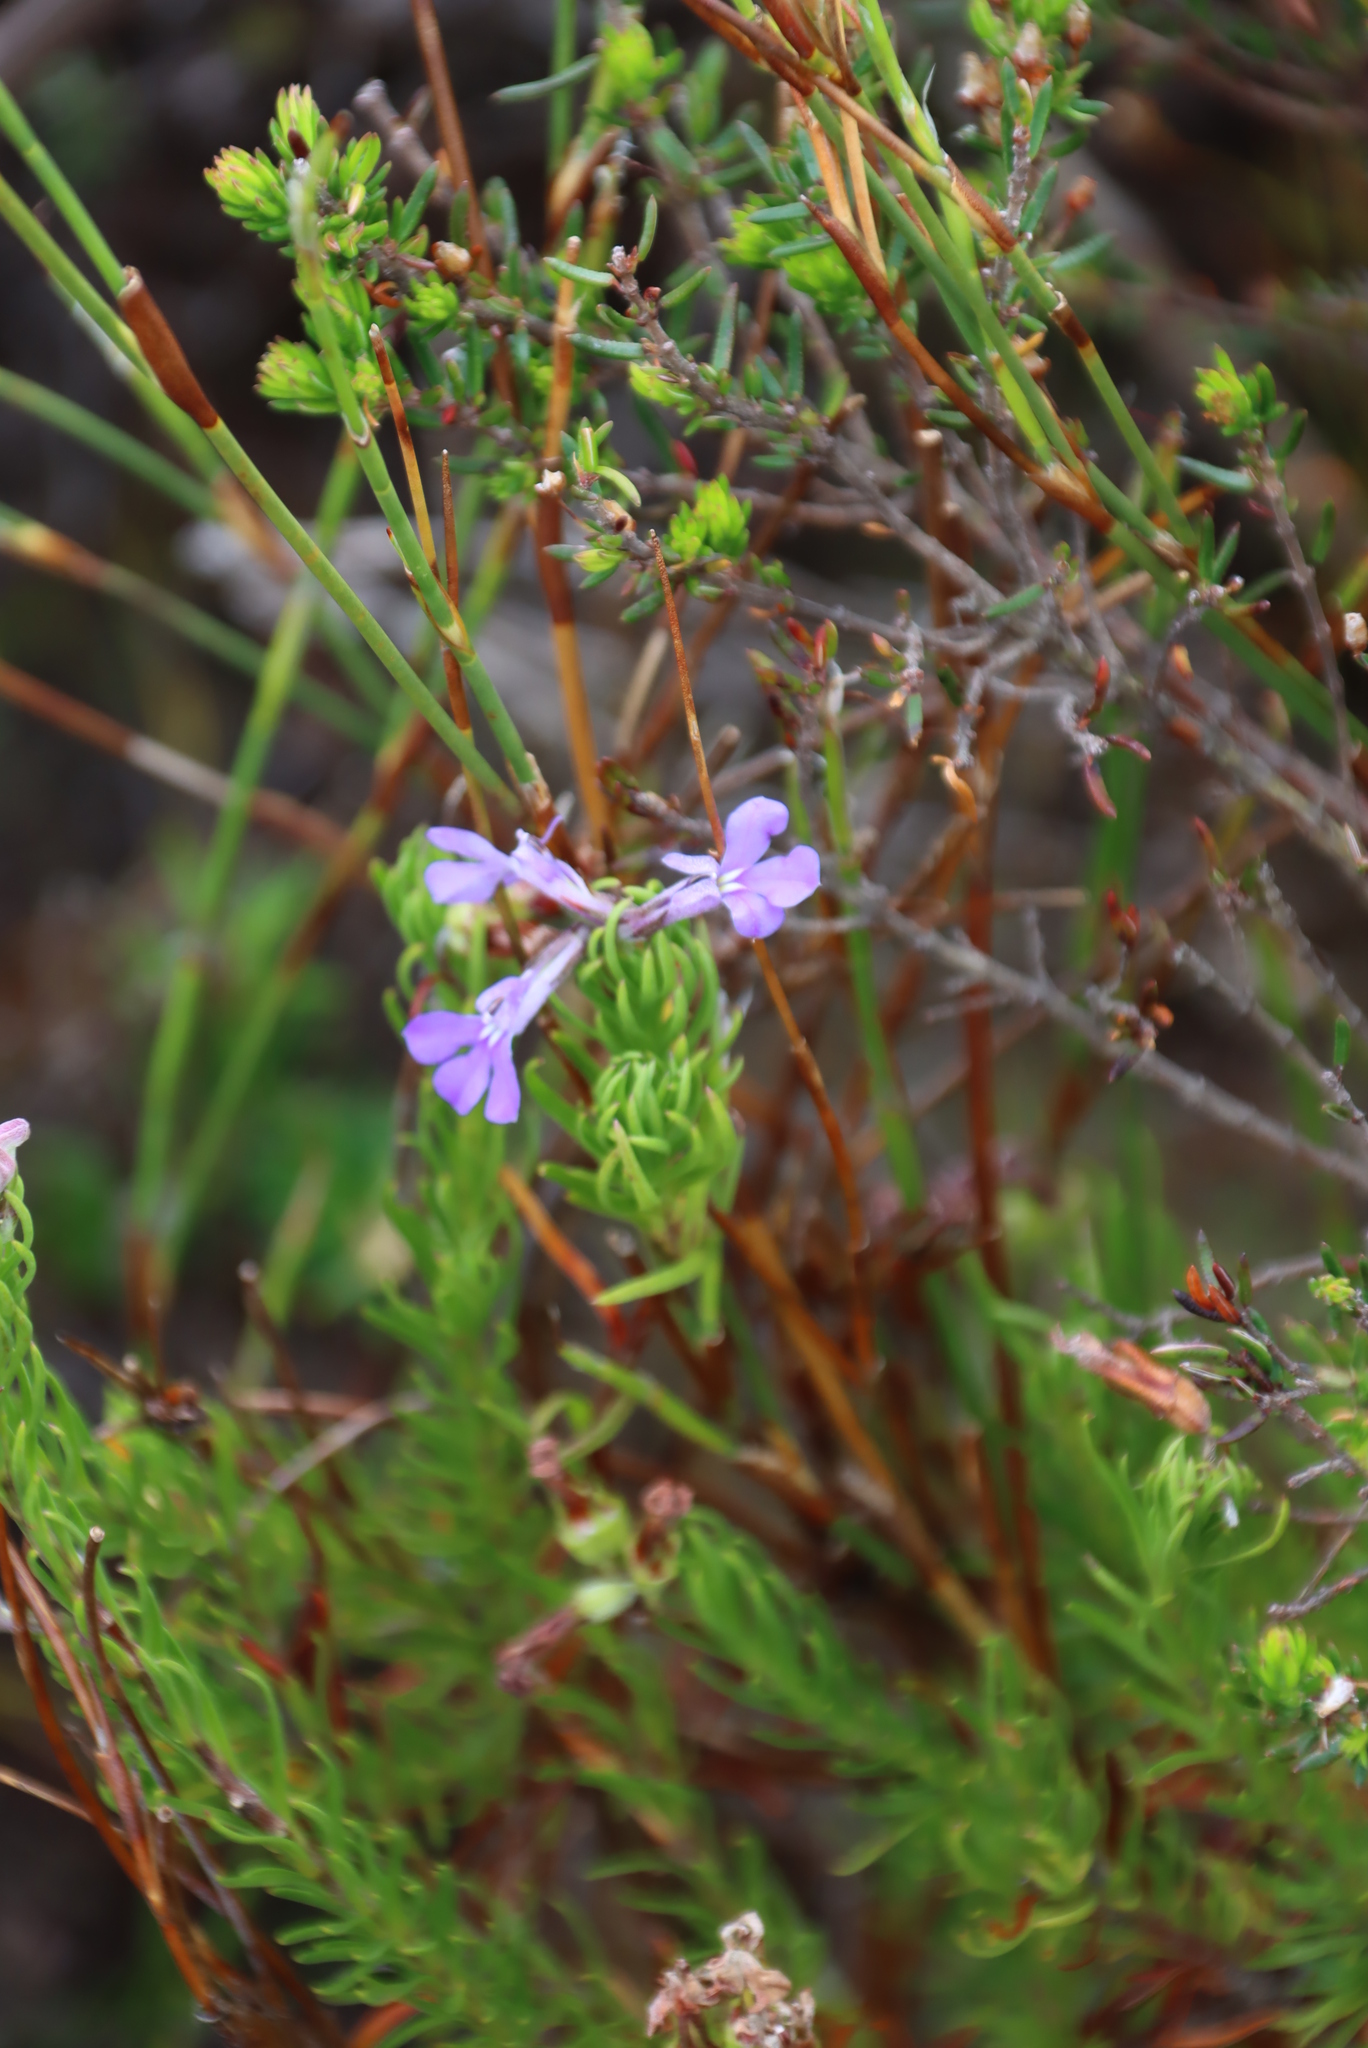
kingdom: Plantae
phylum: Tracheophyta
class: Magnoliopsida
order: Asterales
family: Campanulaceae
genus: Lobelia
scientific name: Lobelia pinifolia
